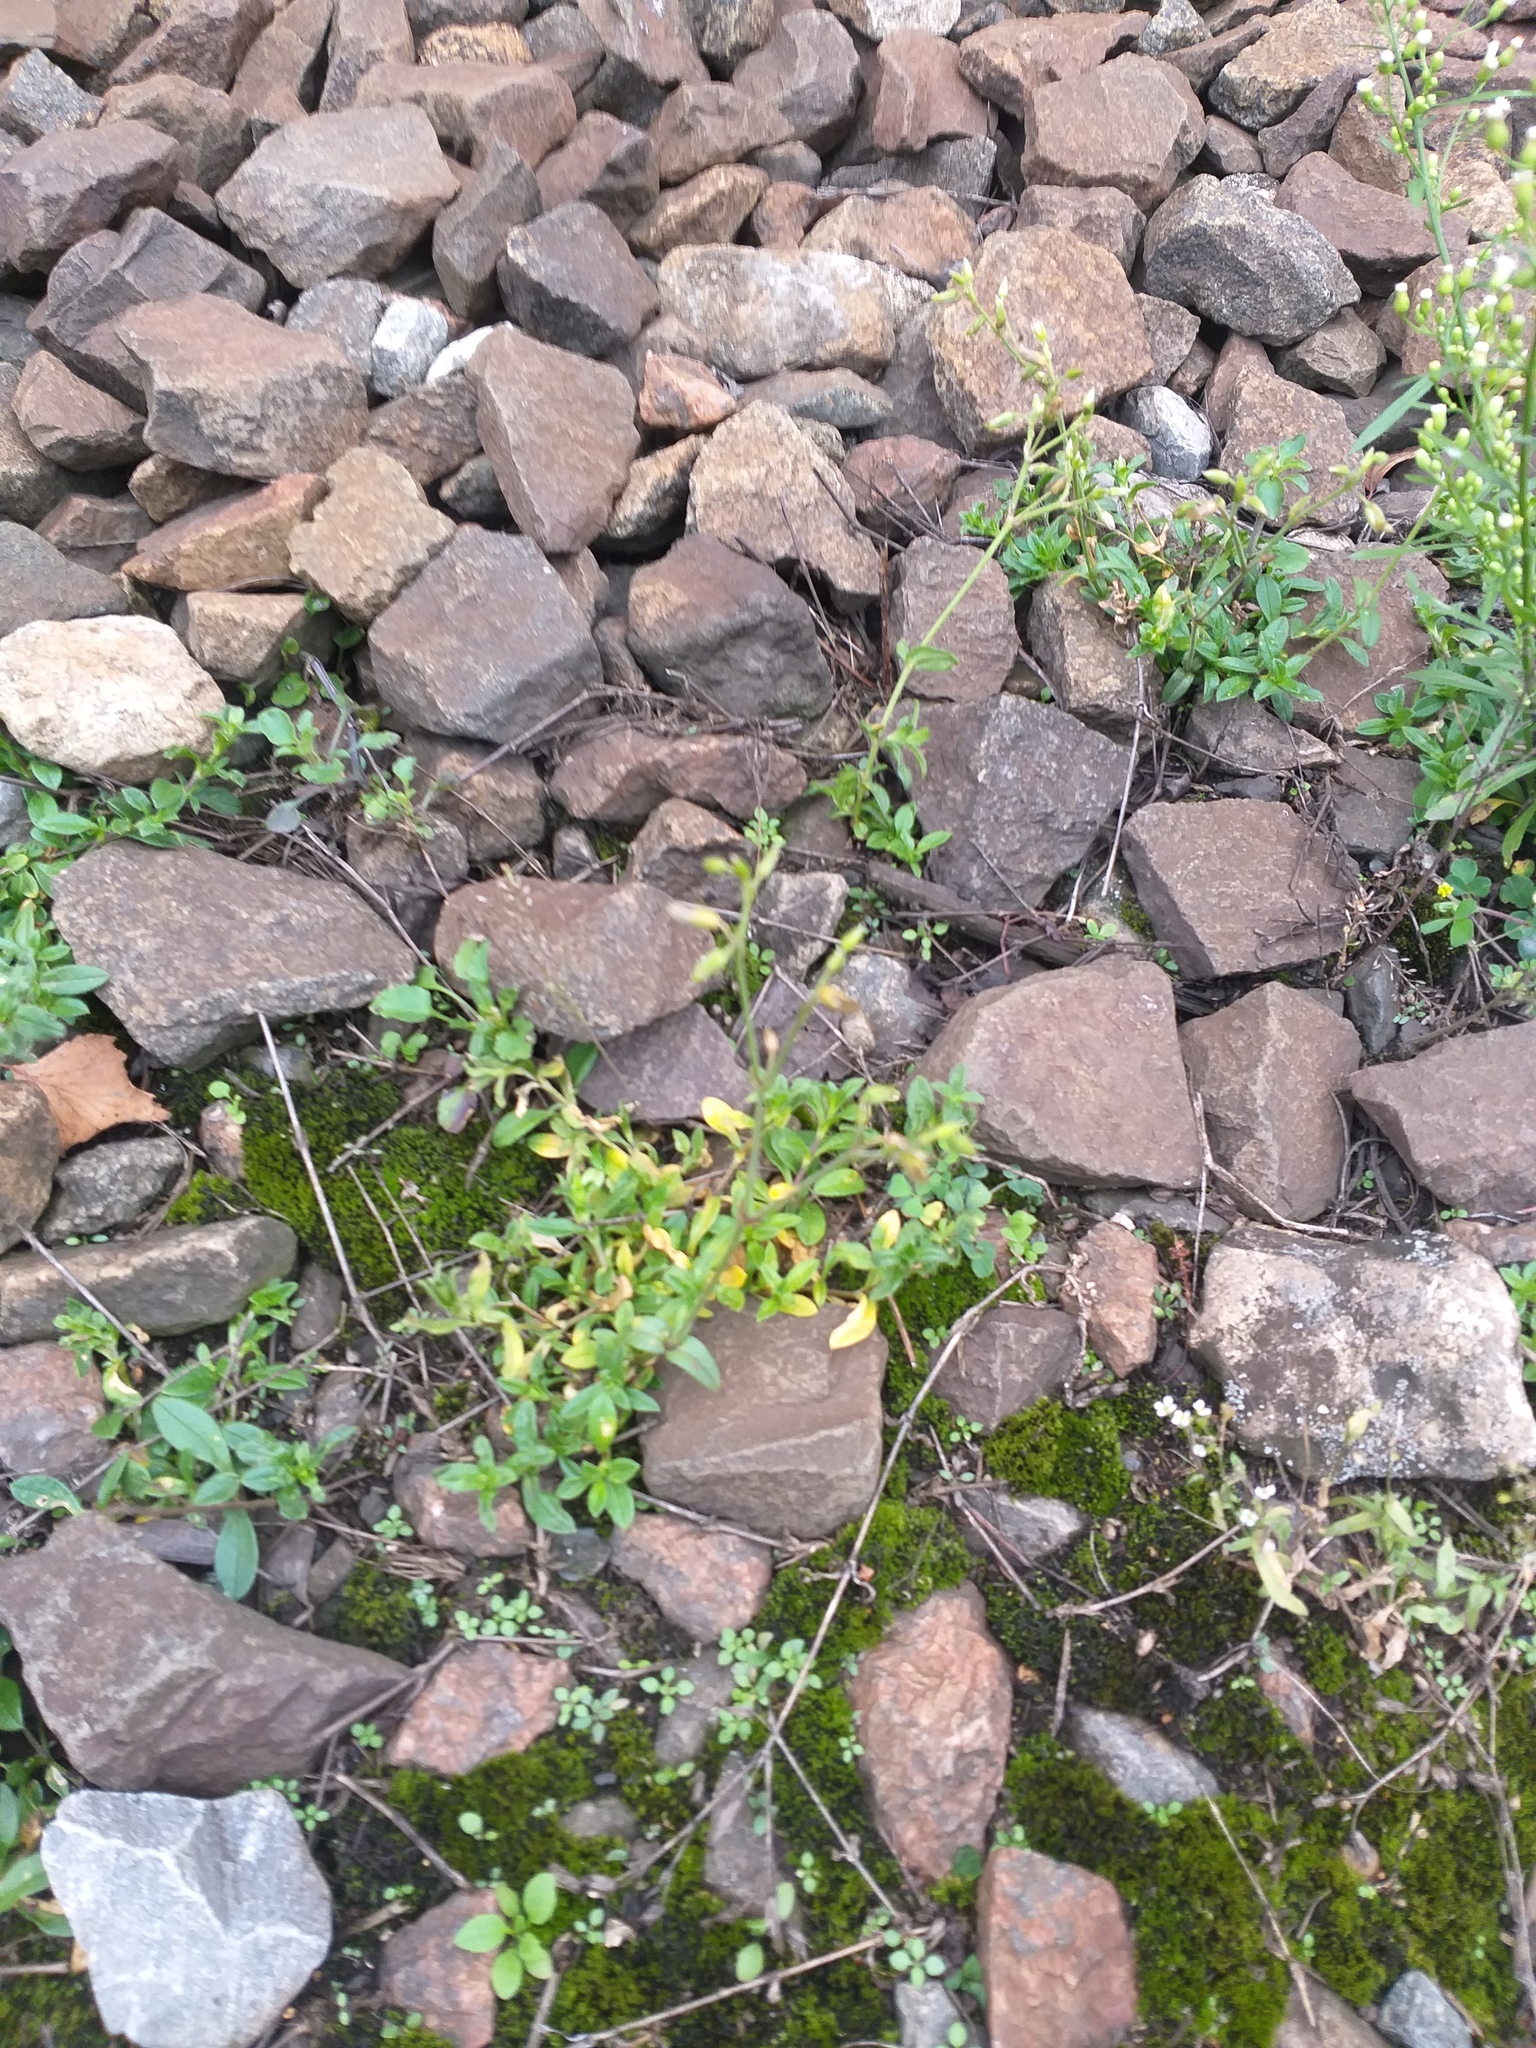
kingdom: Plantae
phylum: Tracheophyta
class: Magnoliopsida
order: Caryophyllales
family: Caryophyllaceae
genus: Cerastium
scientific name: Cerastium holosteoides
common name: Big chickweed
